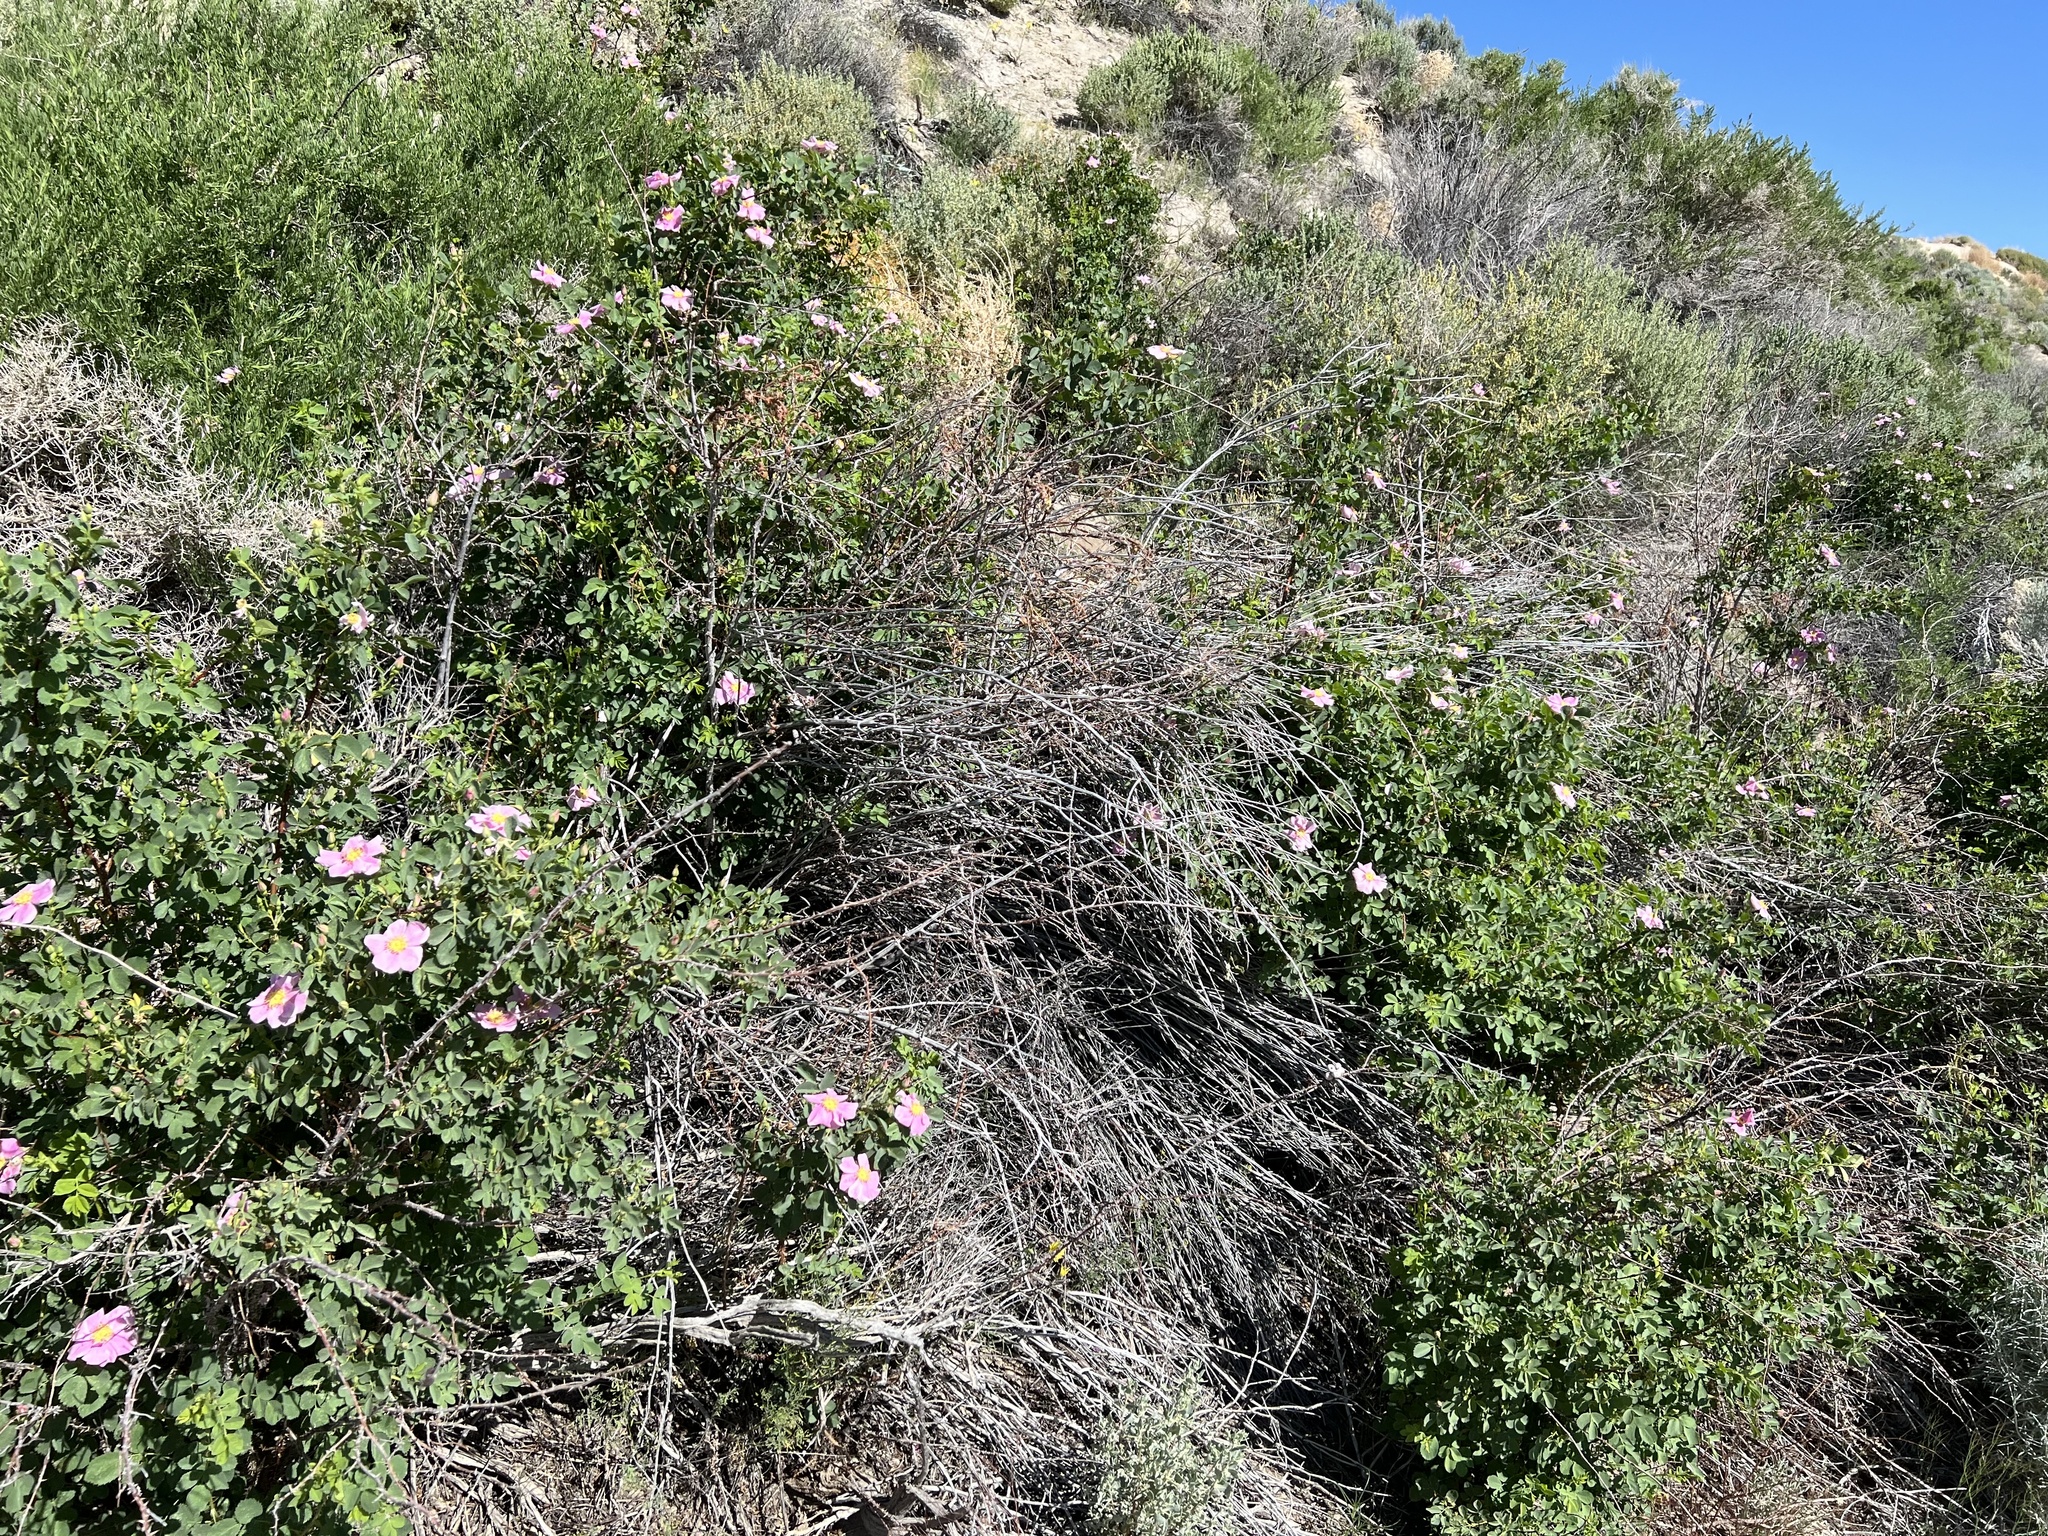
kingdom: Plantae
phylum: Tracheophyta
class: Magnoliopsida
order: Rosales
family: Rosaceae
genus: Rosa
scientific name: Rosa woodsii
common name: Woods's rose
